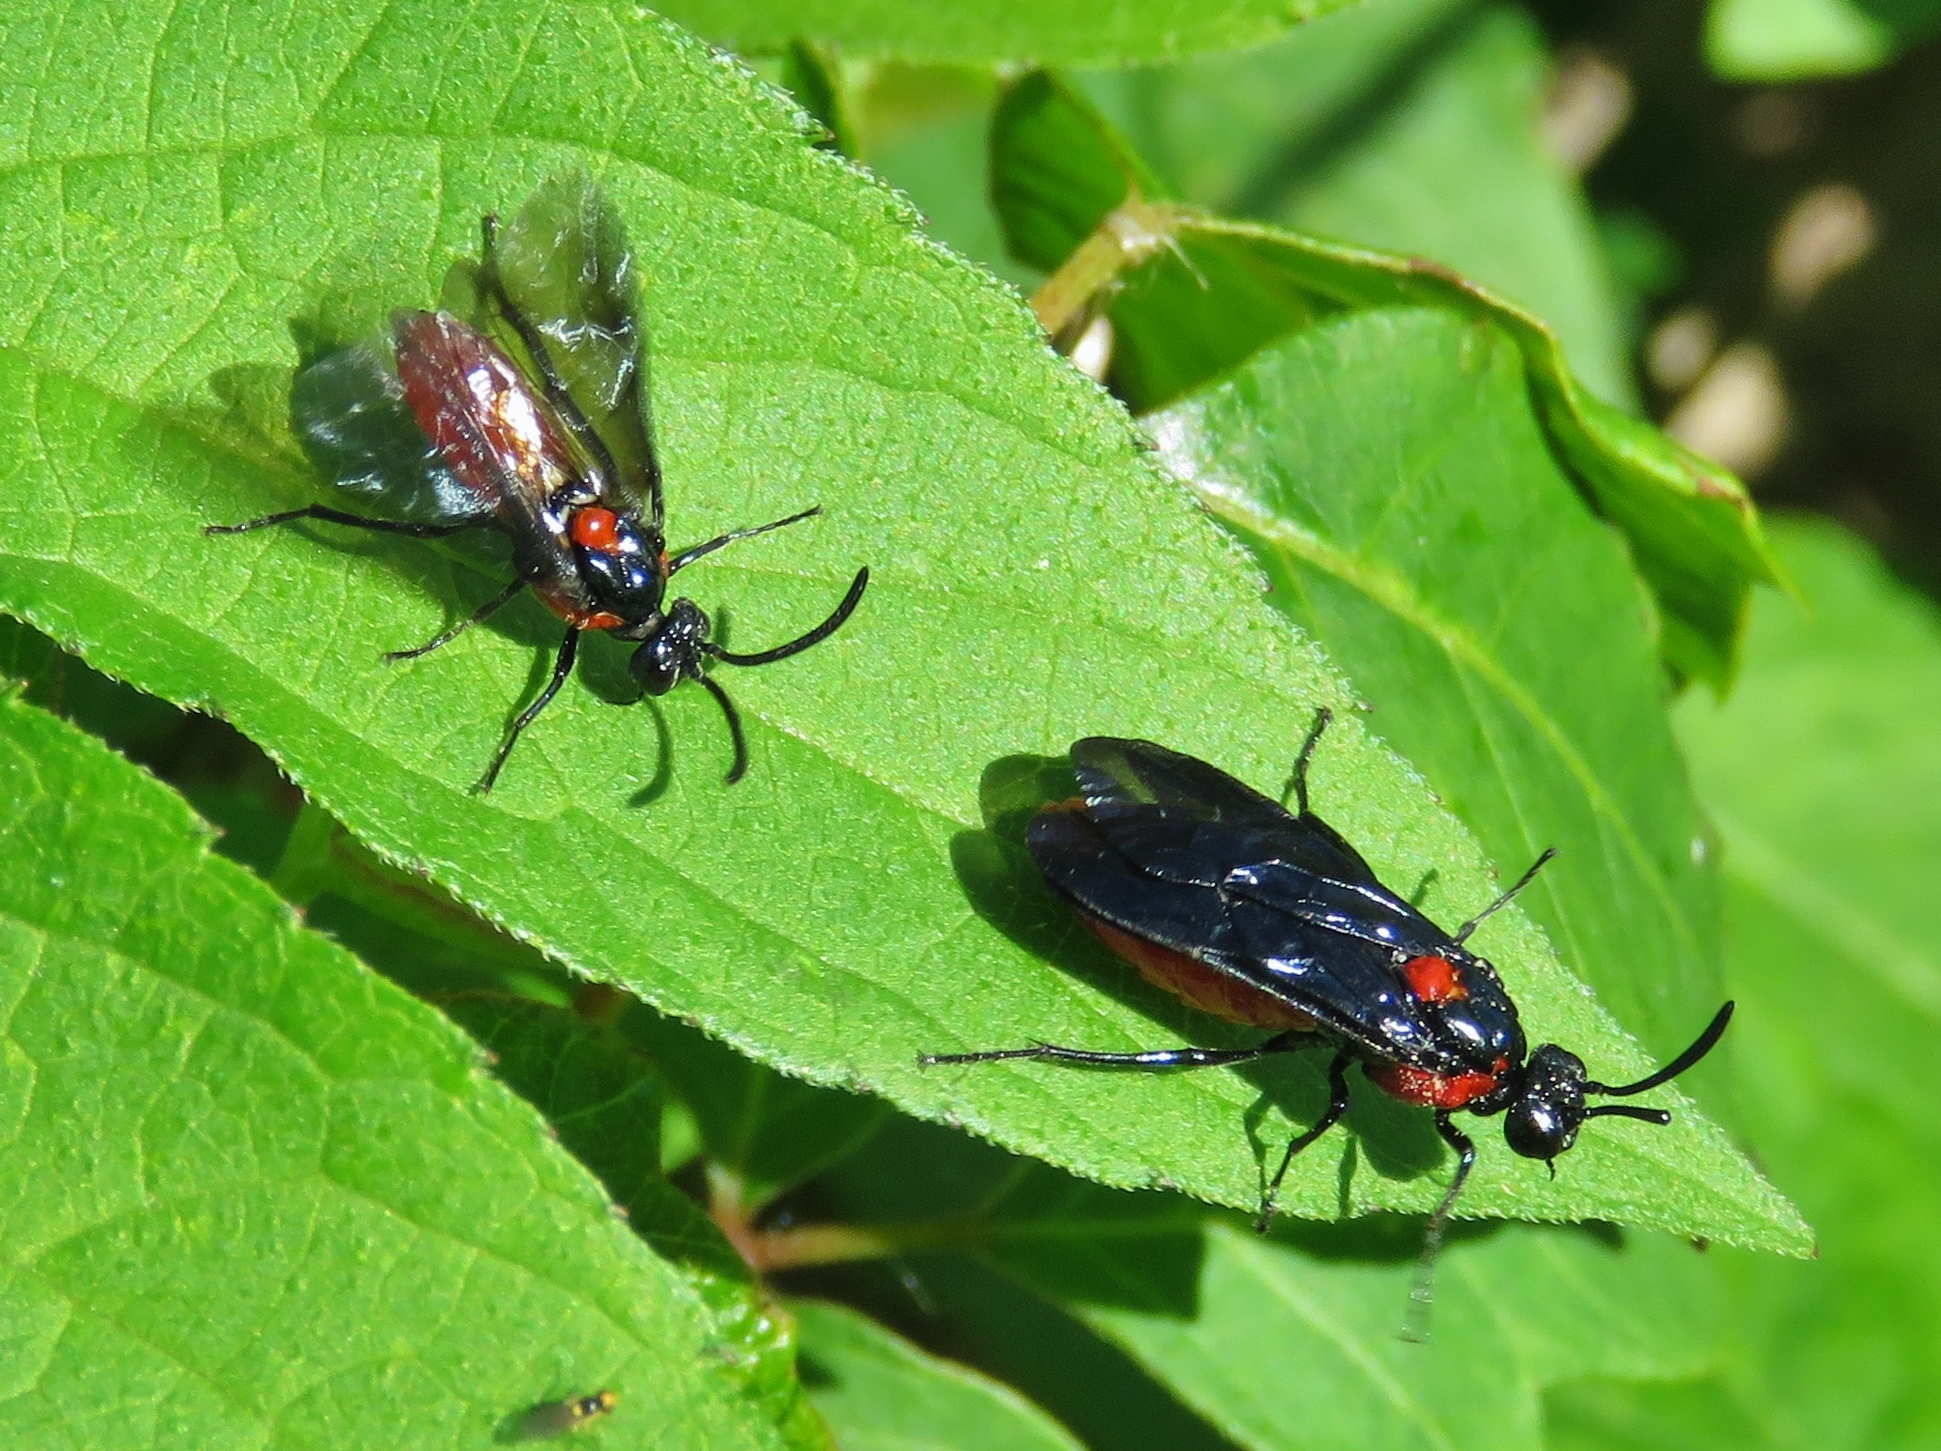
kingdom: Animalia
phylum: Arthropoda
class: Insecta
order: Hymenoptera
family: Argidae
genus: Arge
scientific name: Arge humeralis
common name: Poison ivy sawfly
